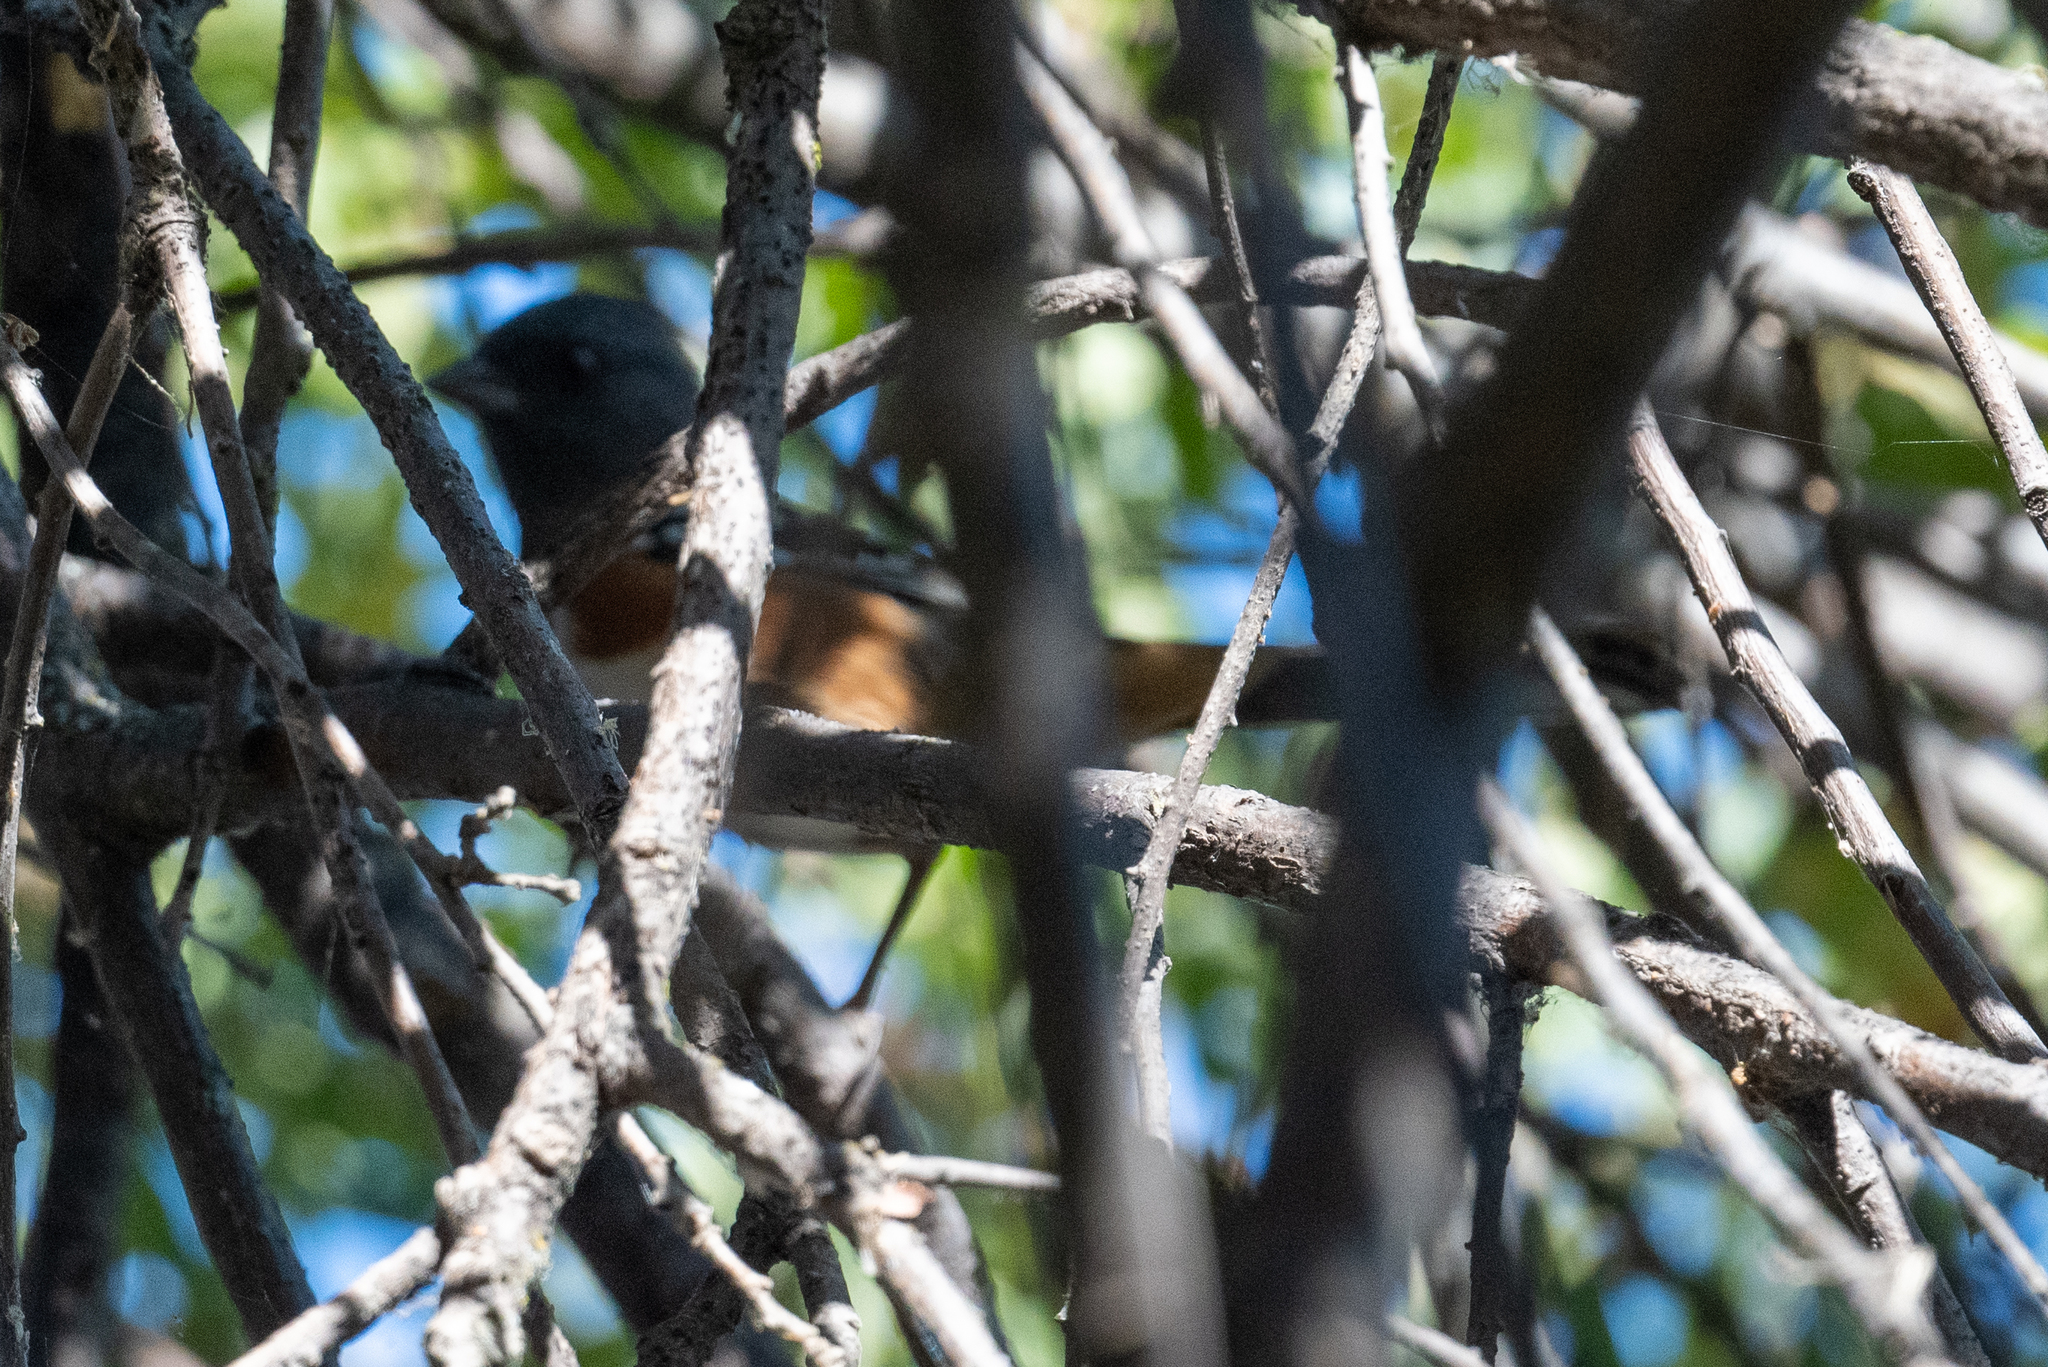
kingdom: Animalia
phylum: Chordata
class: Aves
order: Passeriformes
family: Passerellidae
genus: Pipilo
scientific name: Pipilo maculatus
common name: Spotted towhee
